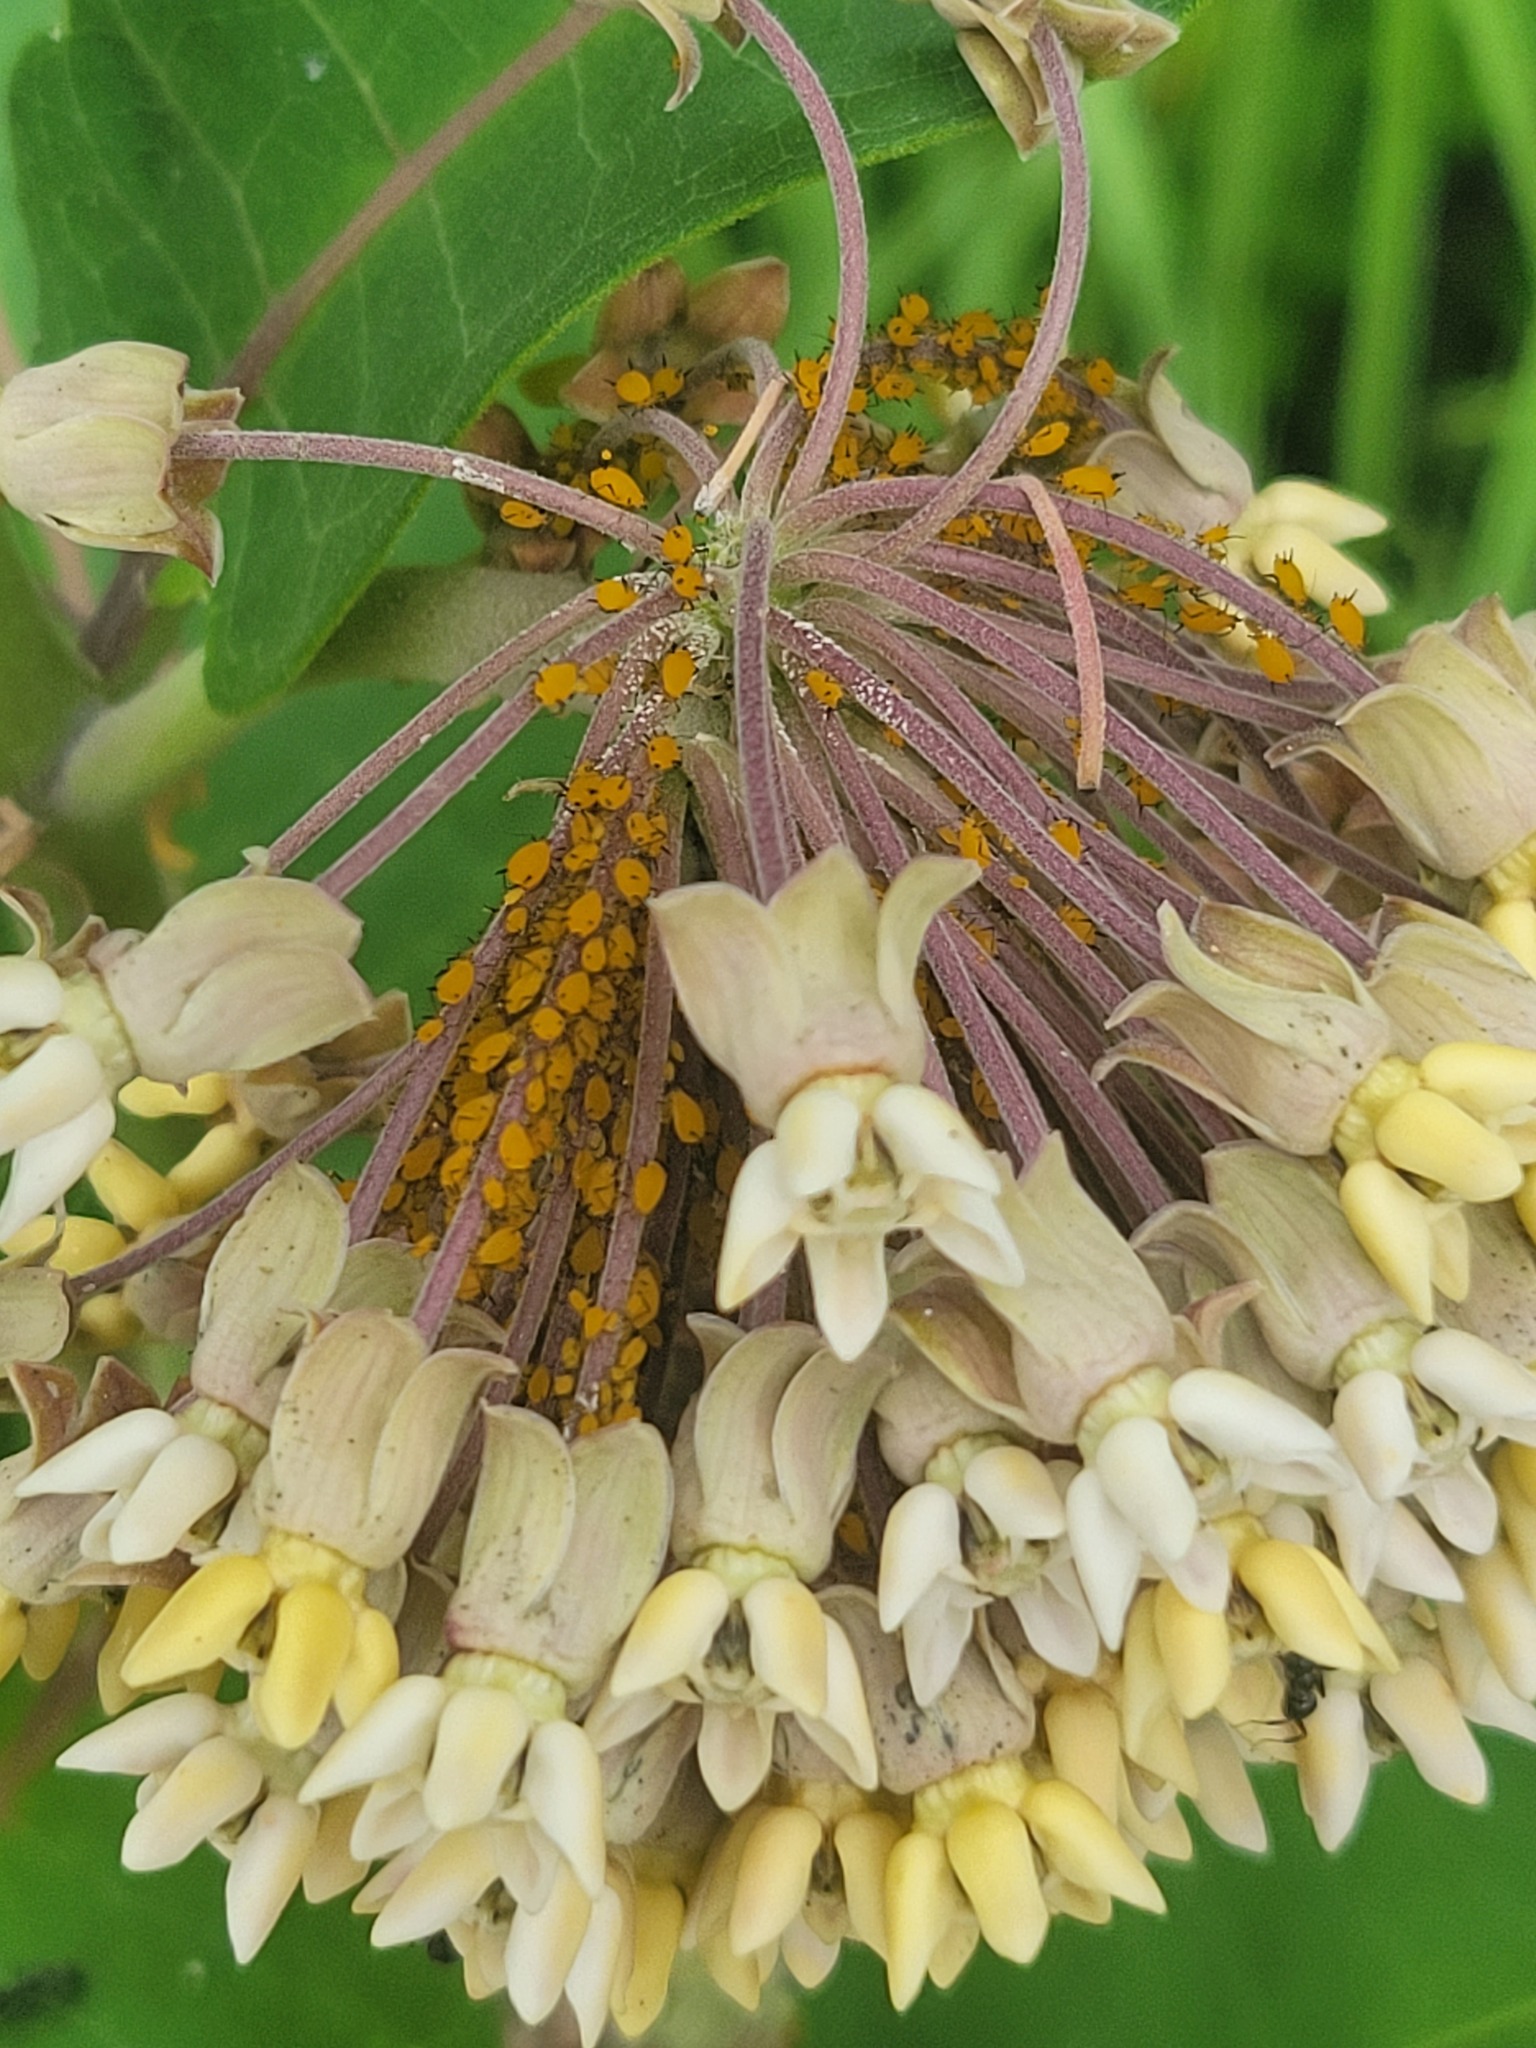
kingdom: Animalia
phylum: Arthropoda
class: Insecta
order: Hemiptera
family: Aphididae
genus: Aphis
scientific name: Aphis nerii
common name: Oleander aphid
